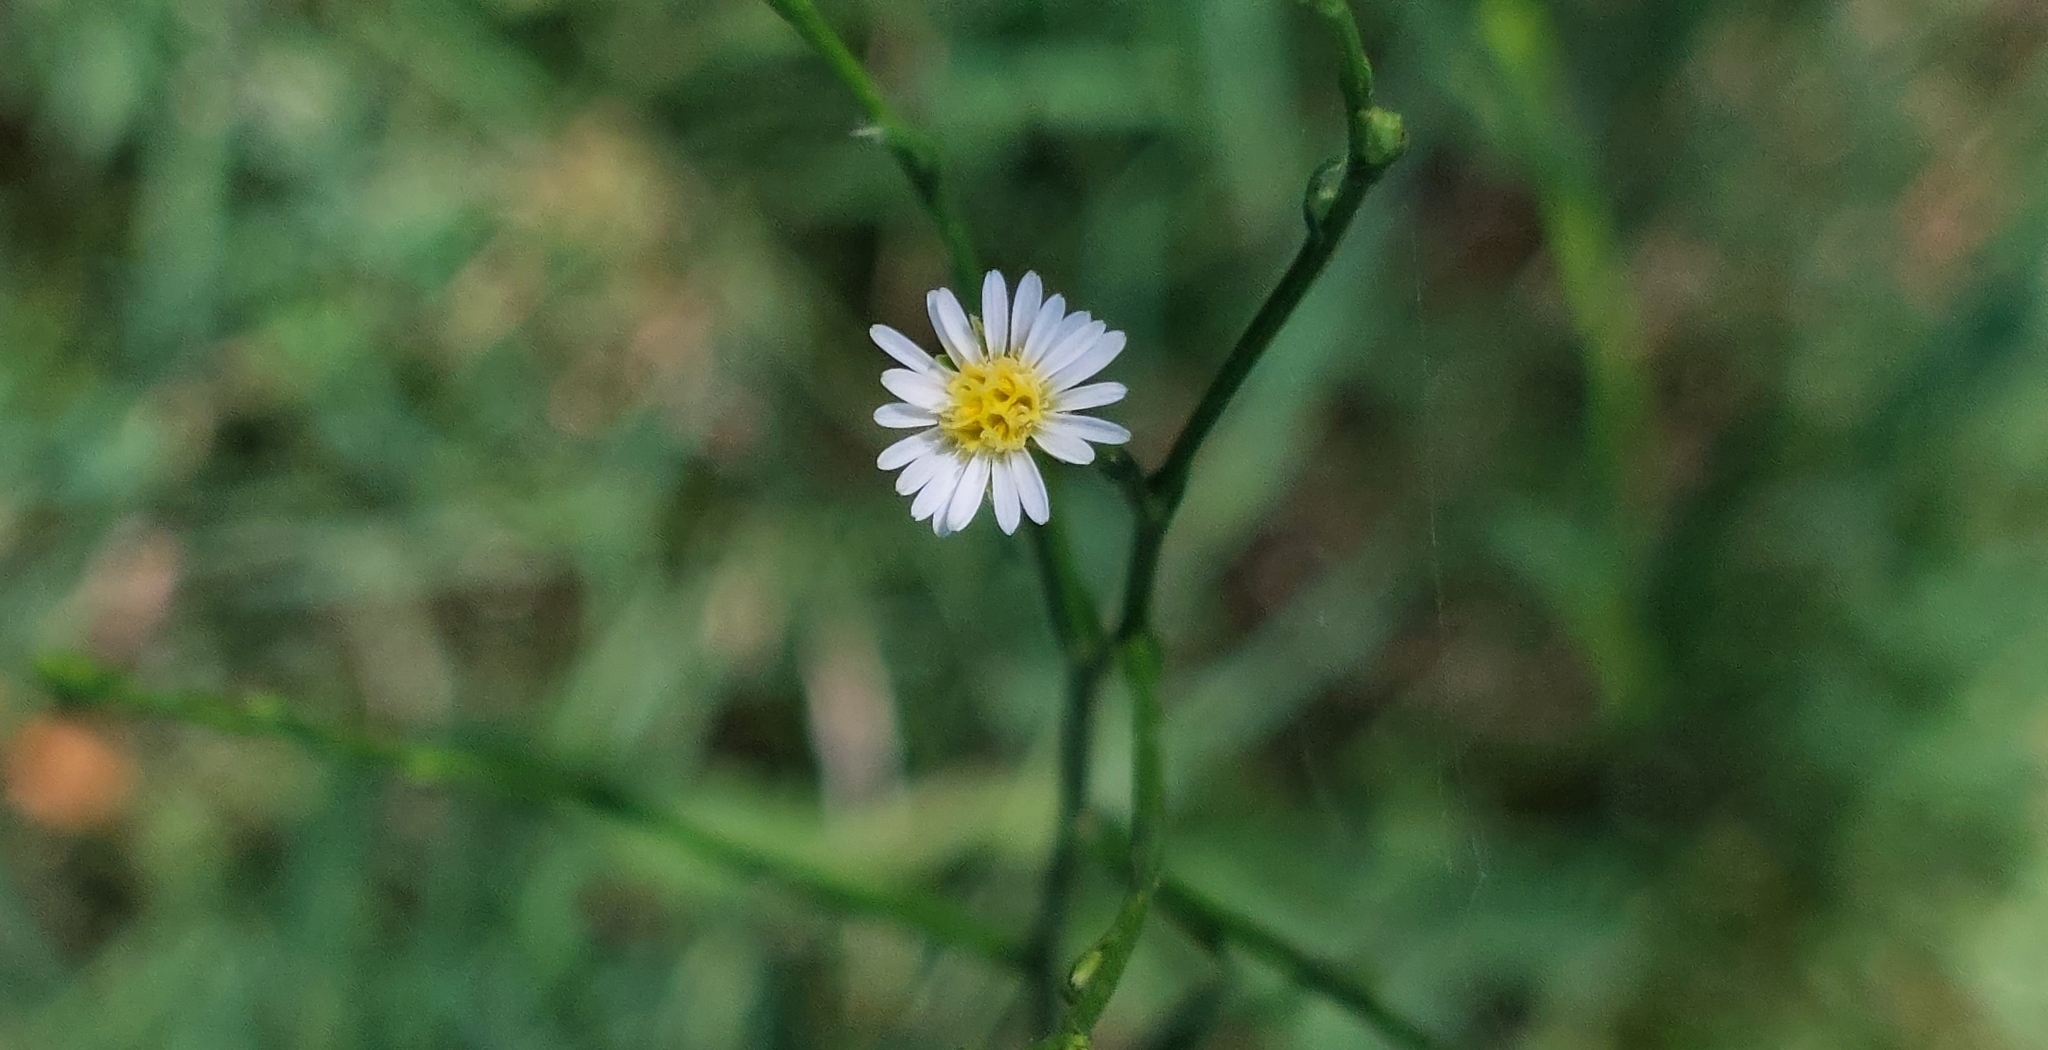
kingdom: Plantae
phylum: Tracheophyta
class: Magnoliopsida
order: Asterales
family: Asteraceae
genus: Symphyotrichum
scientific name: Symphyotrichum squamatum
